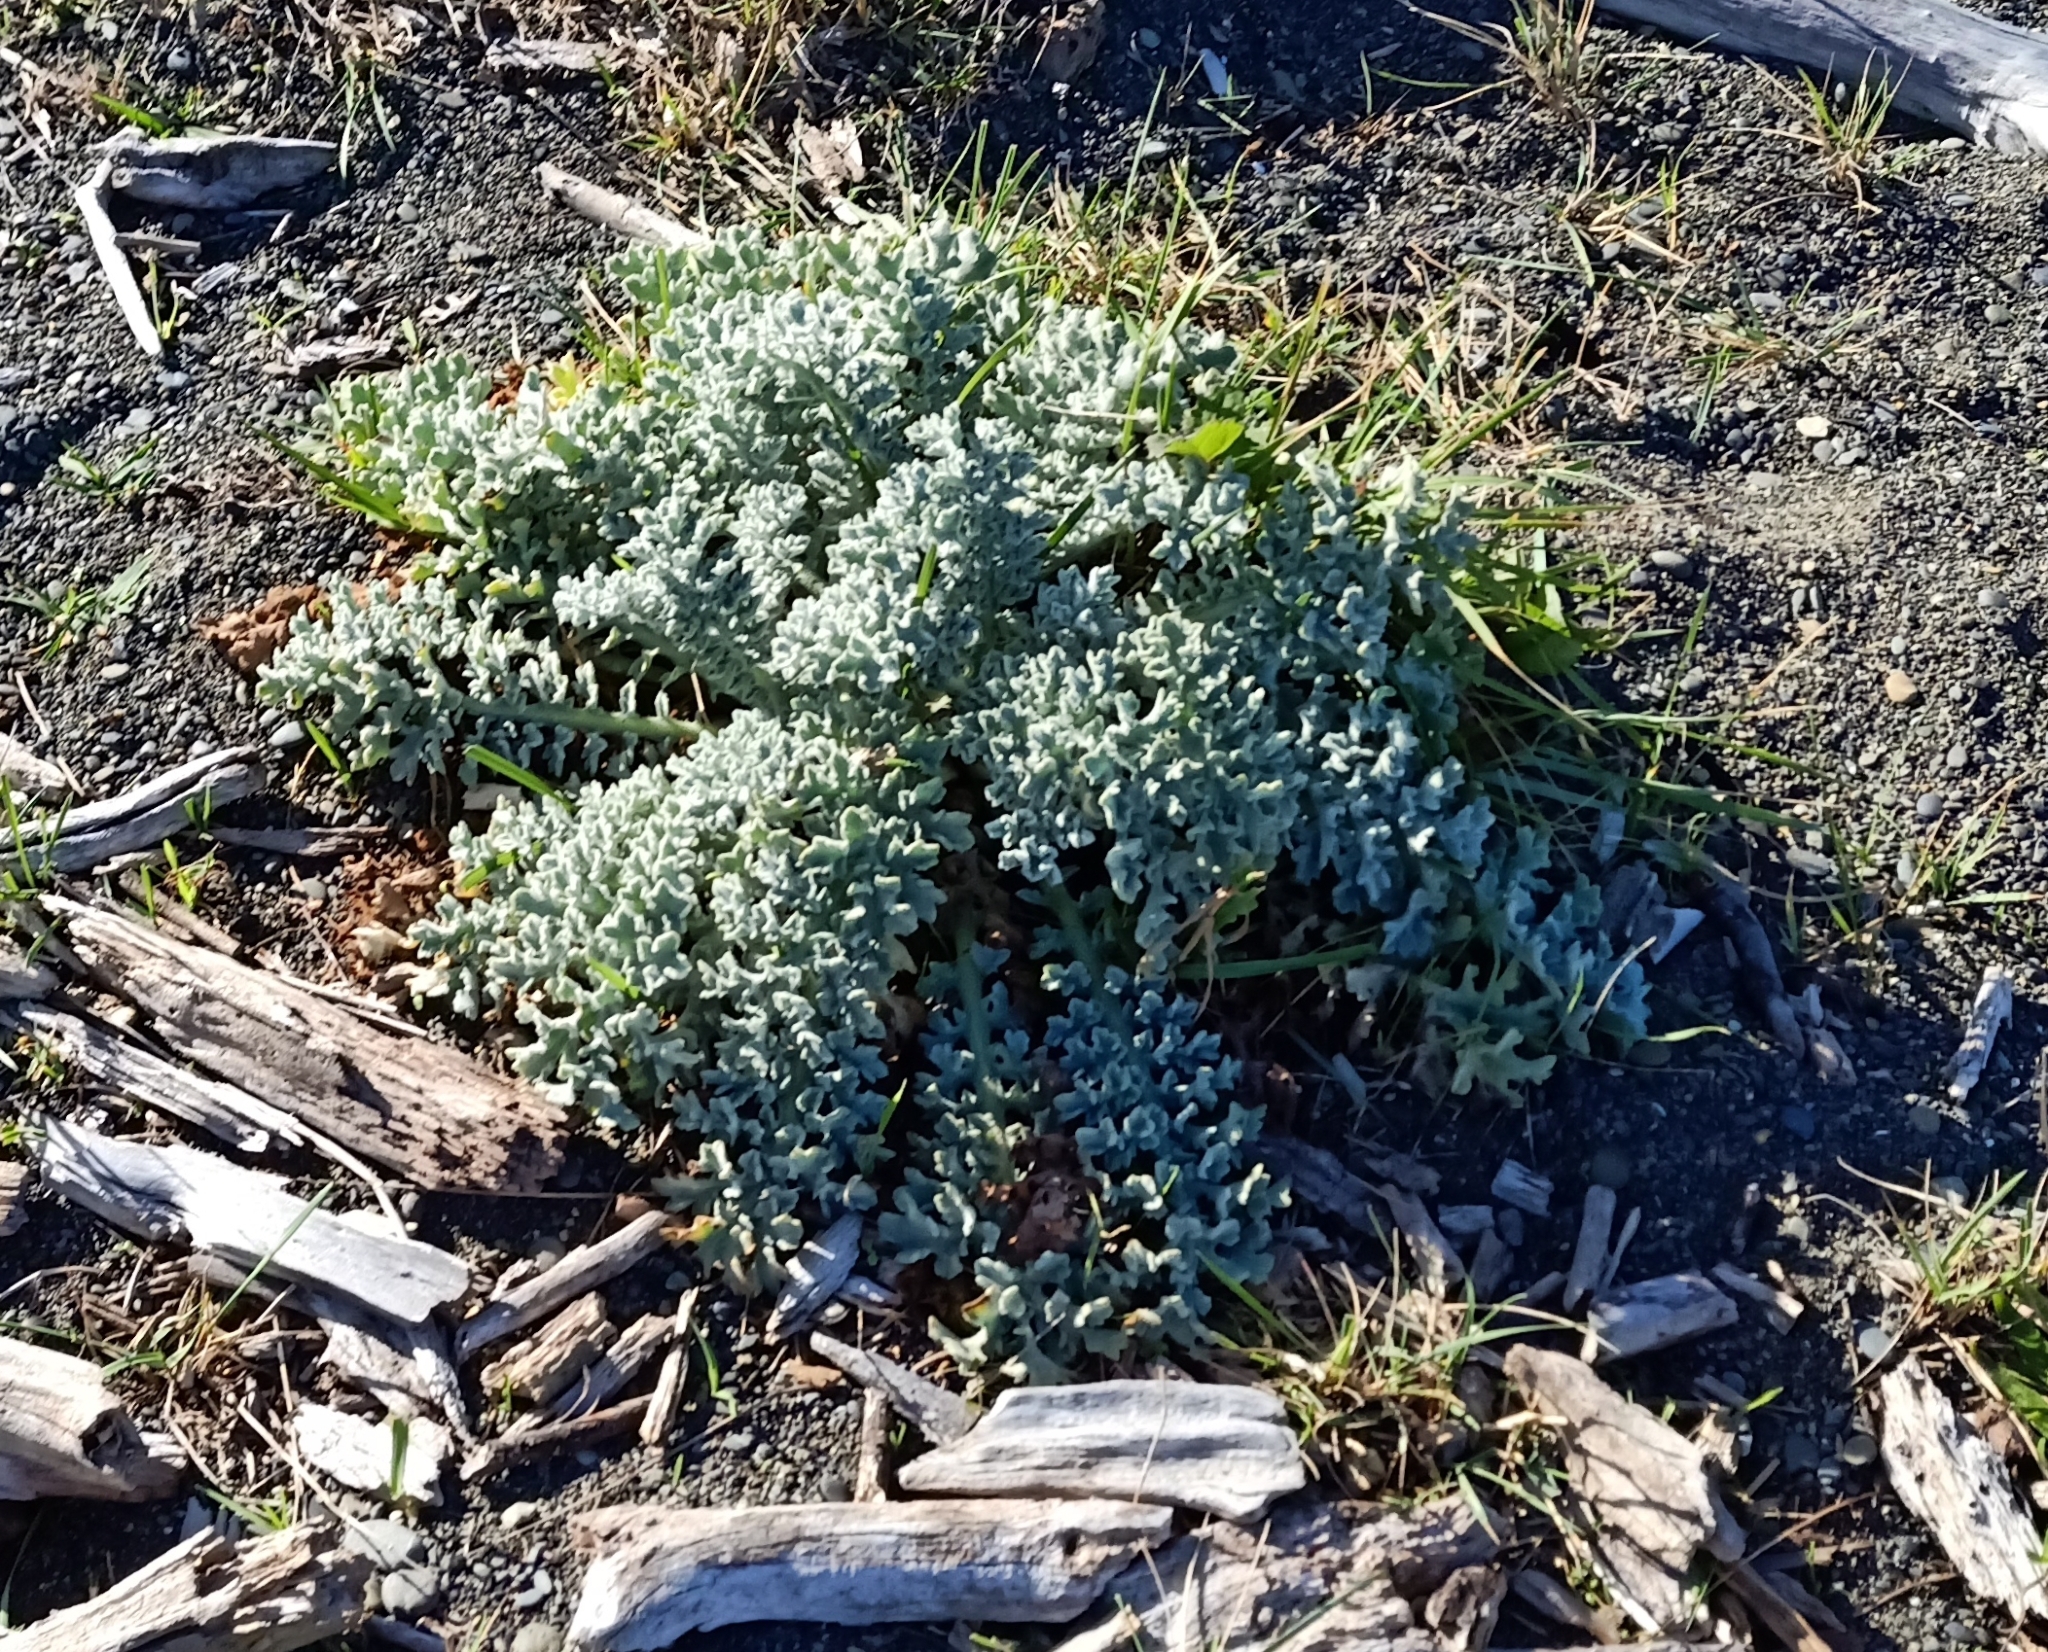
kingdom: Plantae
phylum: Tracheophyta
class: Magnoliopsida
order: Ranunculales
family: Papaveraceae
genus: Glaucium
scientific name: Glaucium flavum
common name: Yellow horned-poppy
